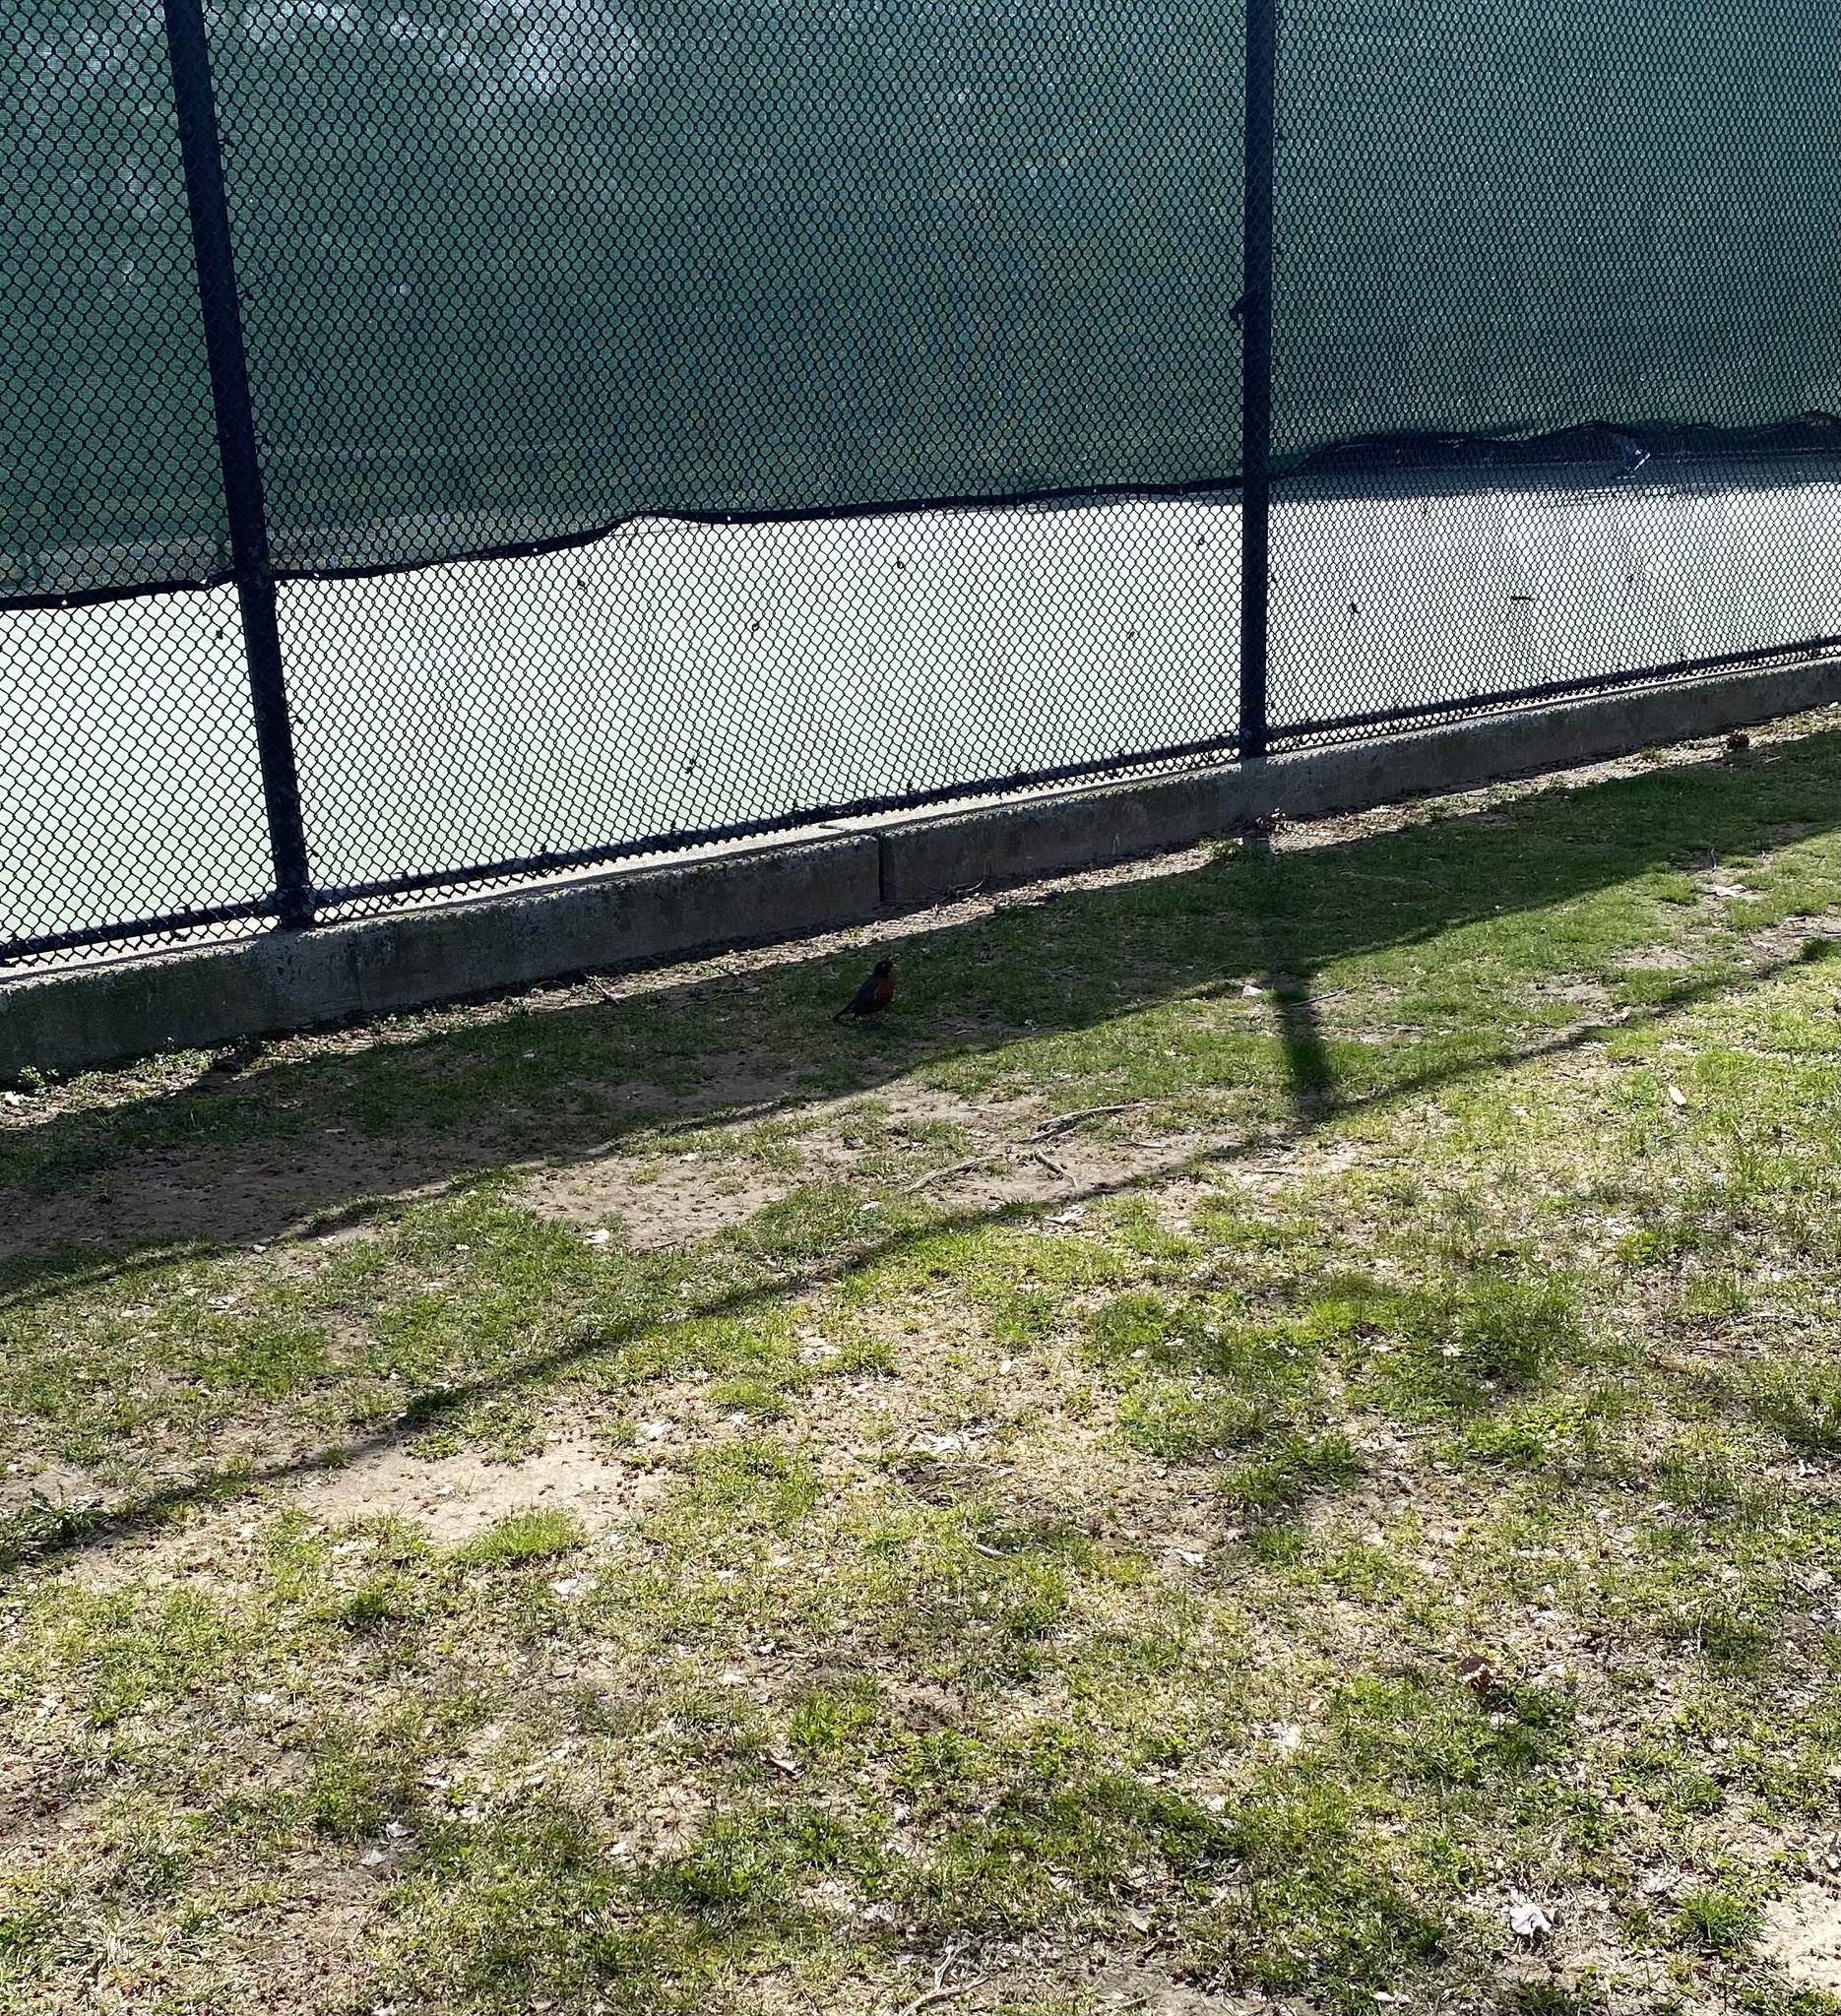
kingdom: Animalia
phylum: Chordata
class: Aves
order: Passeriformes
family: Turdidae
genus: Turdus
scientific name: Turdus migratorius
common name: American robin
